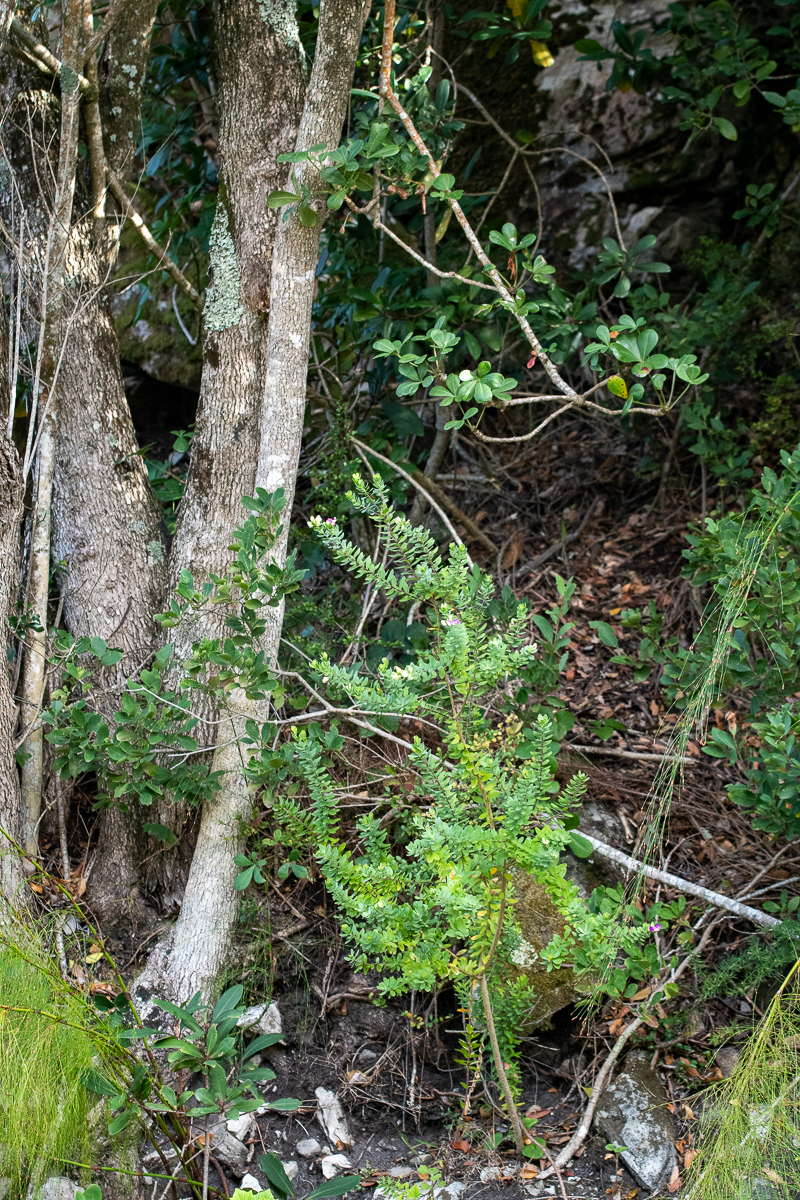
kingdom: Plantae
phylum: Tracheophyta
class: Magnoliopsida
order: Fabales
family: Polygalaceae
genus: Polygala
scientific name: Polygala myrtifolia
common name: Myrtle-leaf milkwort
